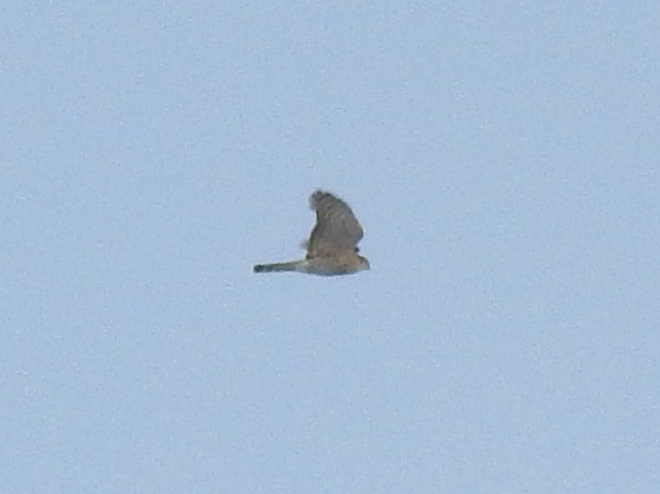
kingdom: Animalia
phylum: Chordata
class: Aves
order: Accipitriformes
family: Accipitridae
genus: Accipiter
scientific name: Accipiter nisus
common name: Eurasian sparrowhawk
